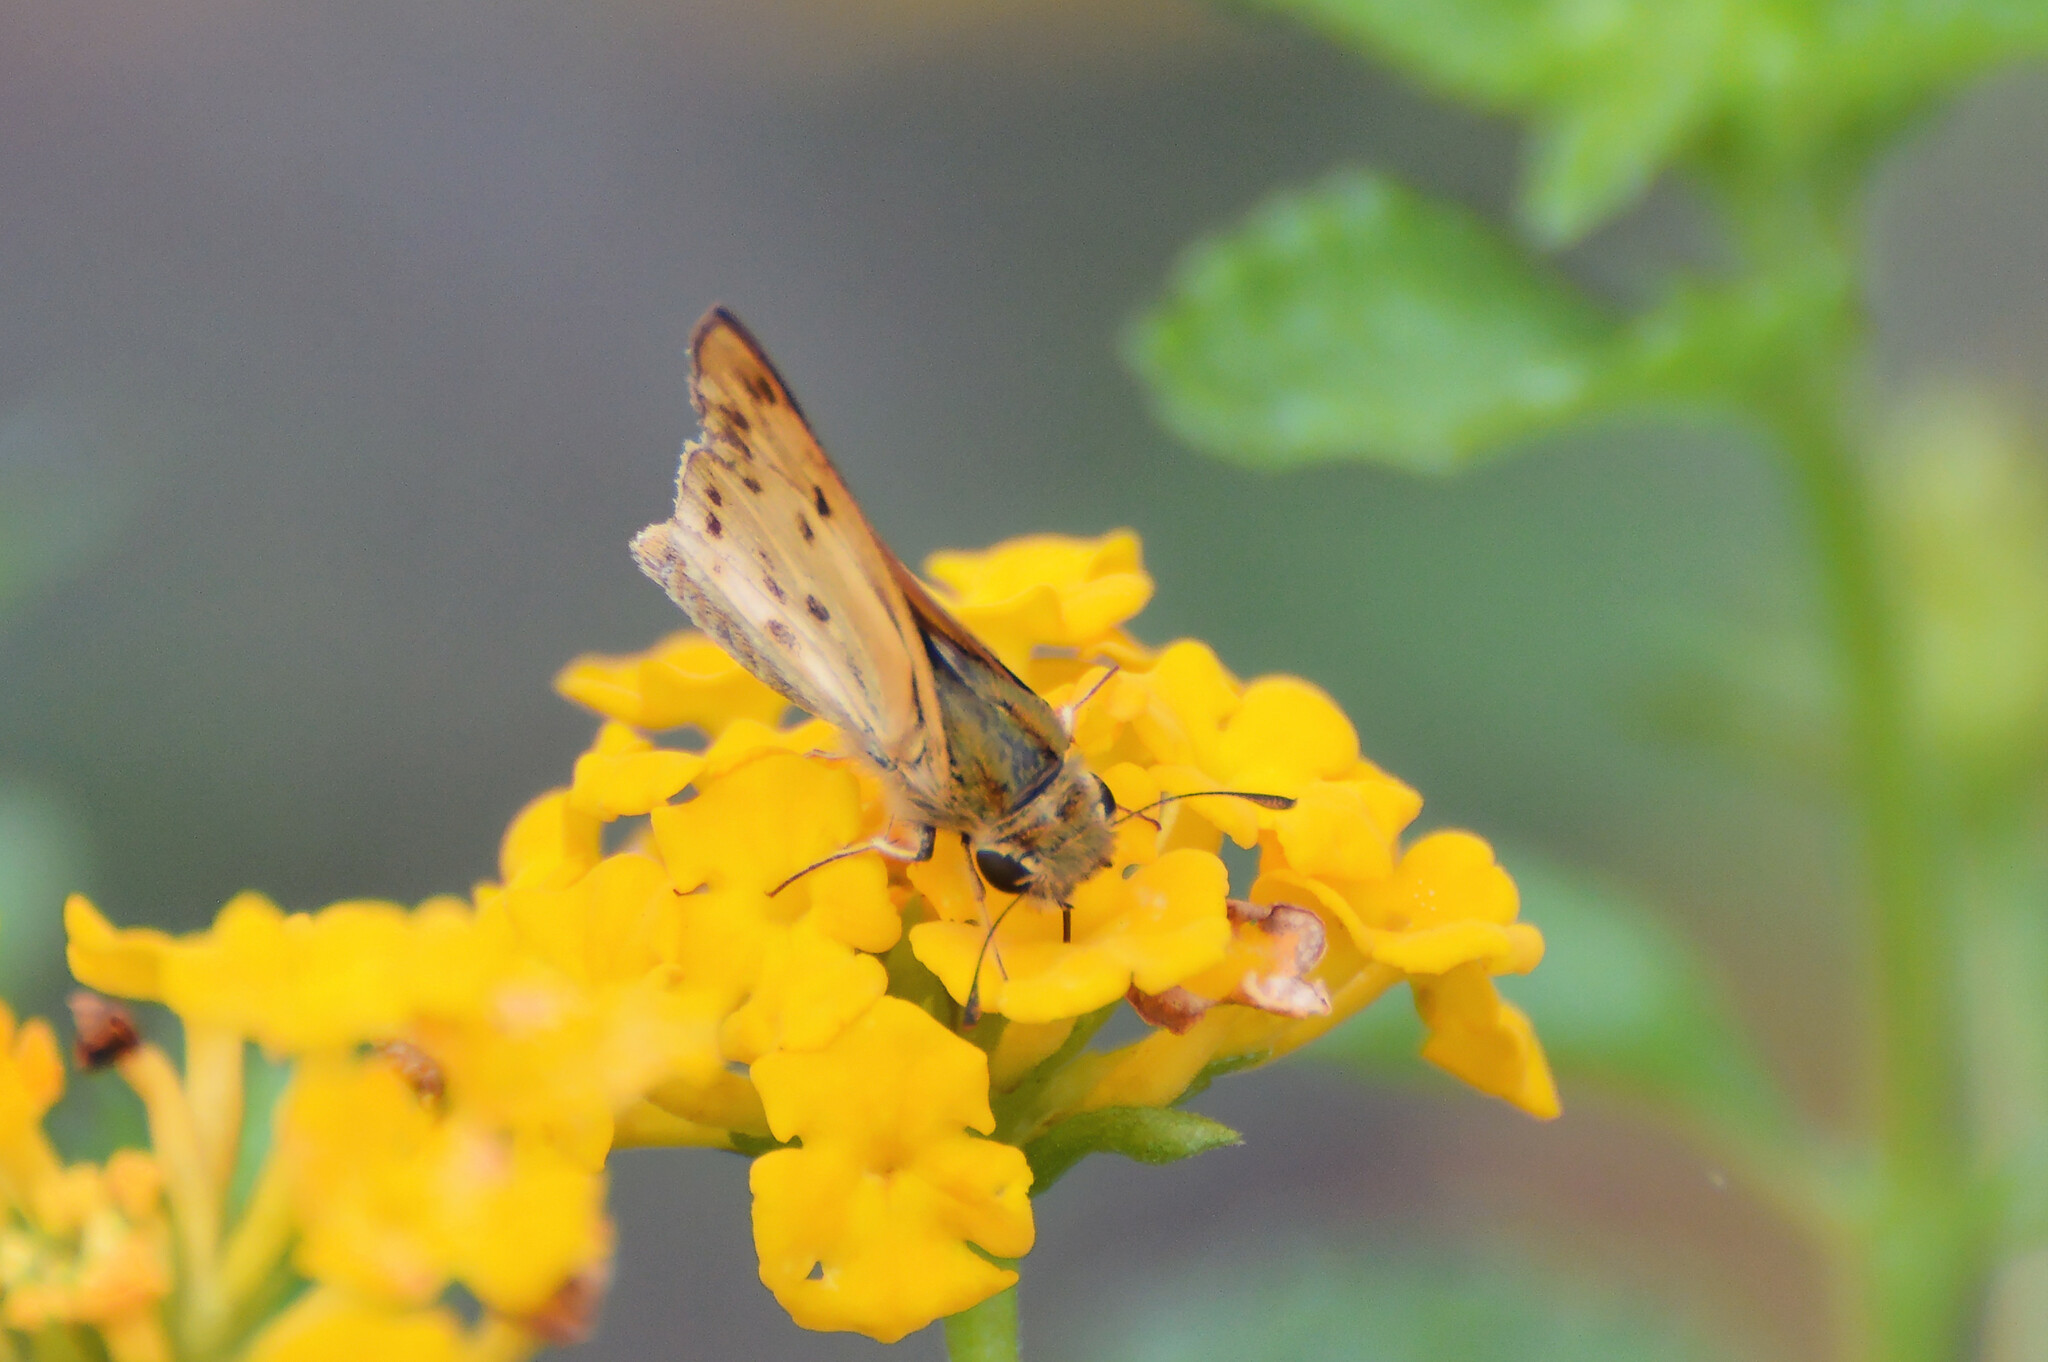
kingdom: Animalia
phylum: Arthropoda
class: Insecta
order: Lepidoptera
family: Hesperiidae
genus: Hylephila
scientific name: Hylephila phyleus
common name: Fiery skipper
